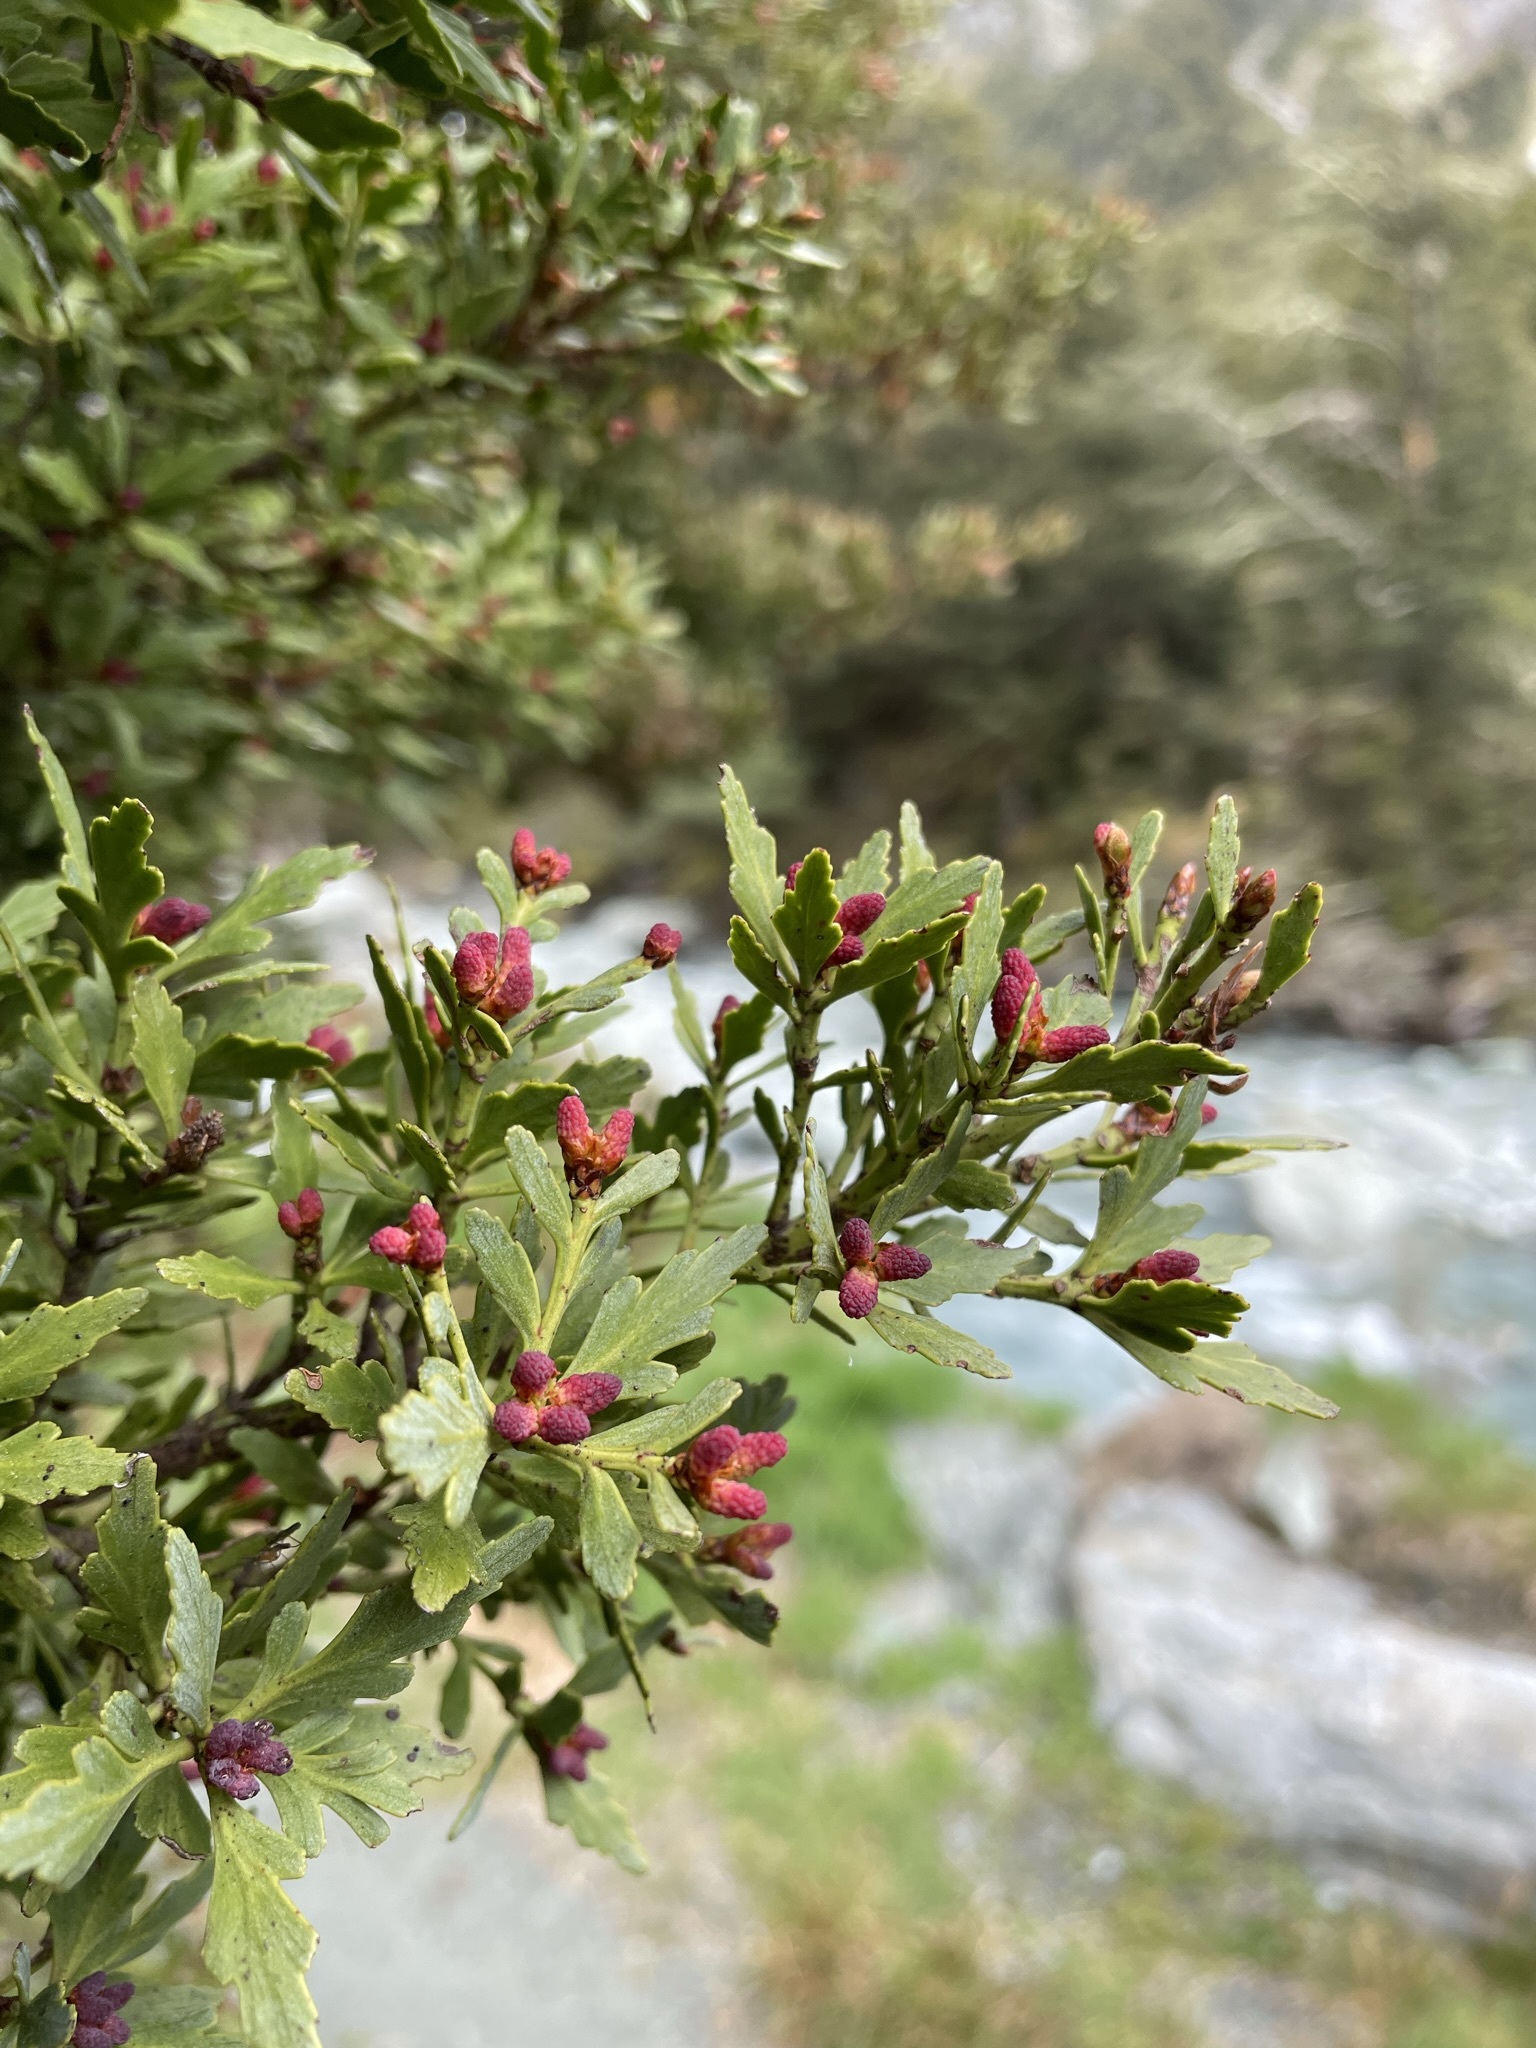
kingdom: Plantae
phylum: Tracheophyta
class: Pinopsida
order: Pinales
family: Phyllocladaceae
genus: Phyllocladus
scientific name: Phyllocladus trichomanoides
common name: Celery pine
